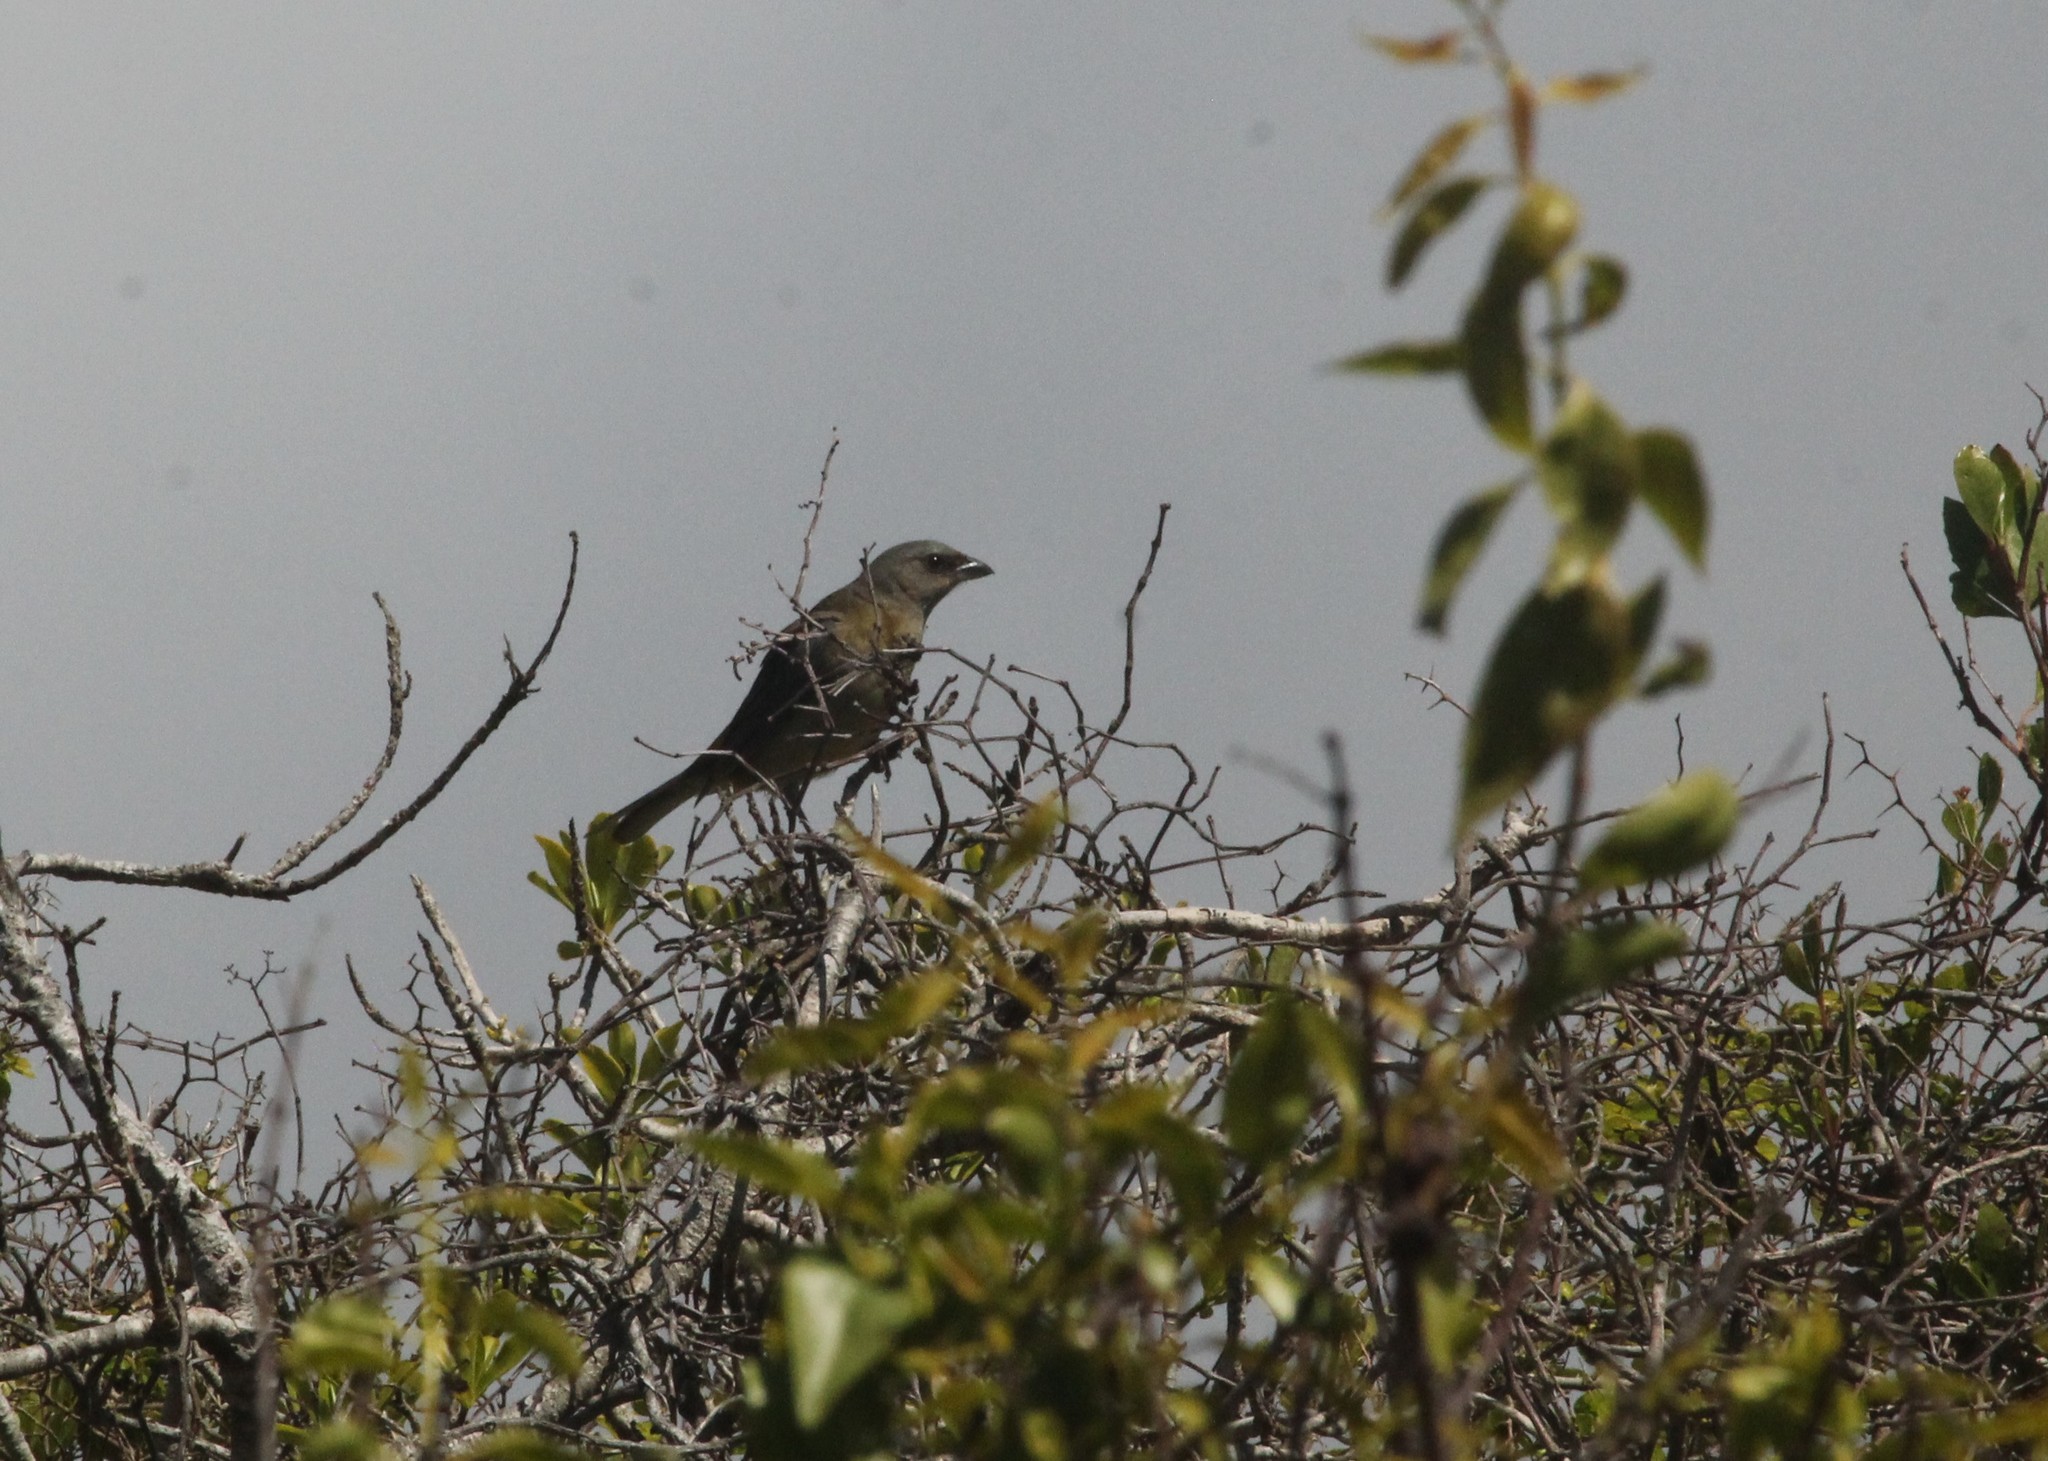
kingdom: Animalia
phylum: Chordata
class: Aves
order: Passeriformes
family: Thraupidae
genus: Rauenia
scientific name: Rauenia bonariensis
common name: Blue-and-yellow tanager
